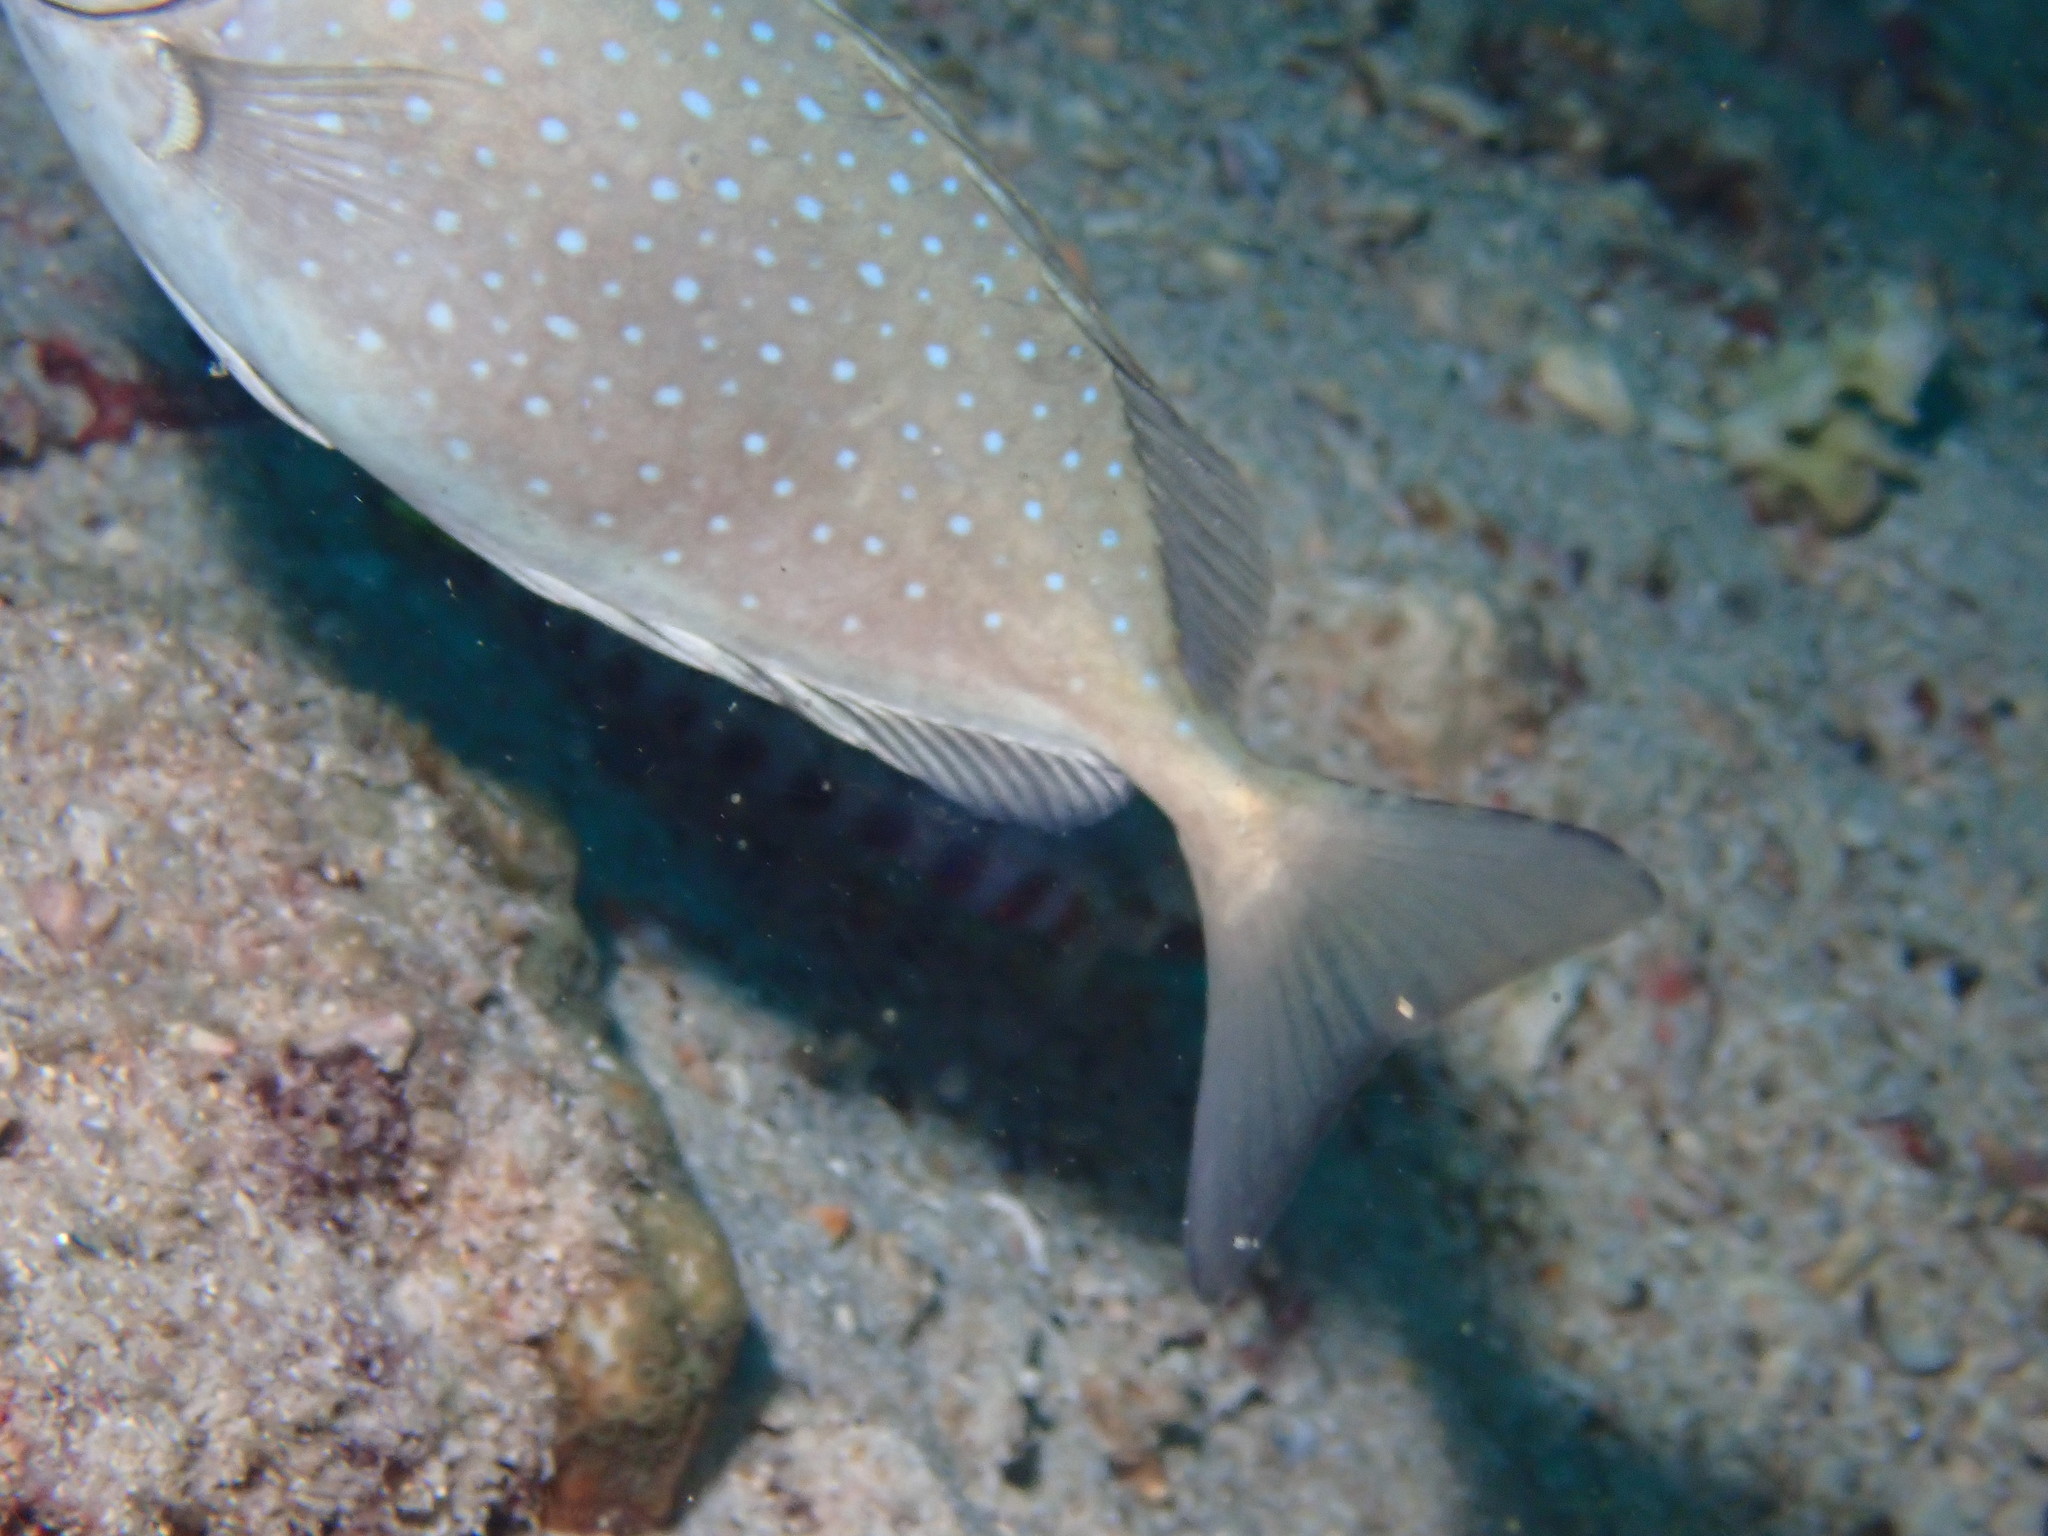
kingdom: Animalia
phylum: Chordata
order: Perciformes
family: Siganidae
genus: Siganus
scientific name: Siganus sutor
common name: Shoemaker spinefoot
